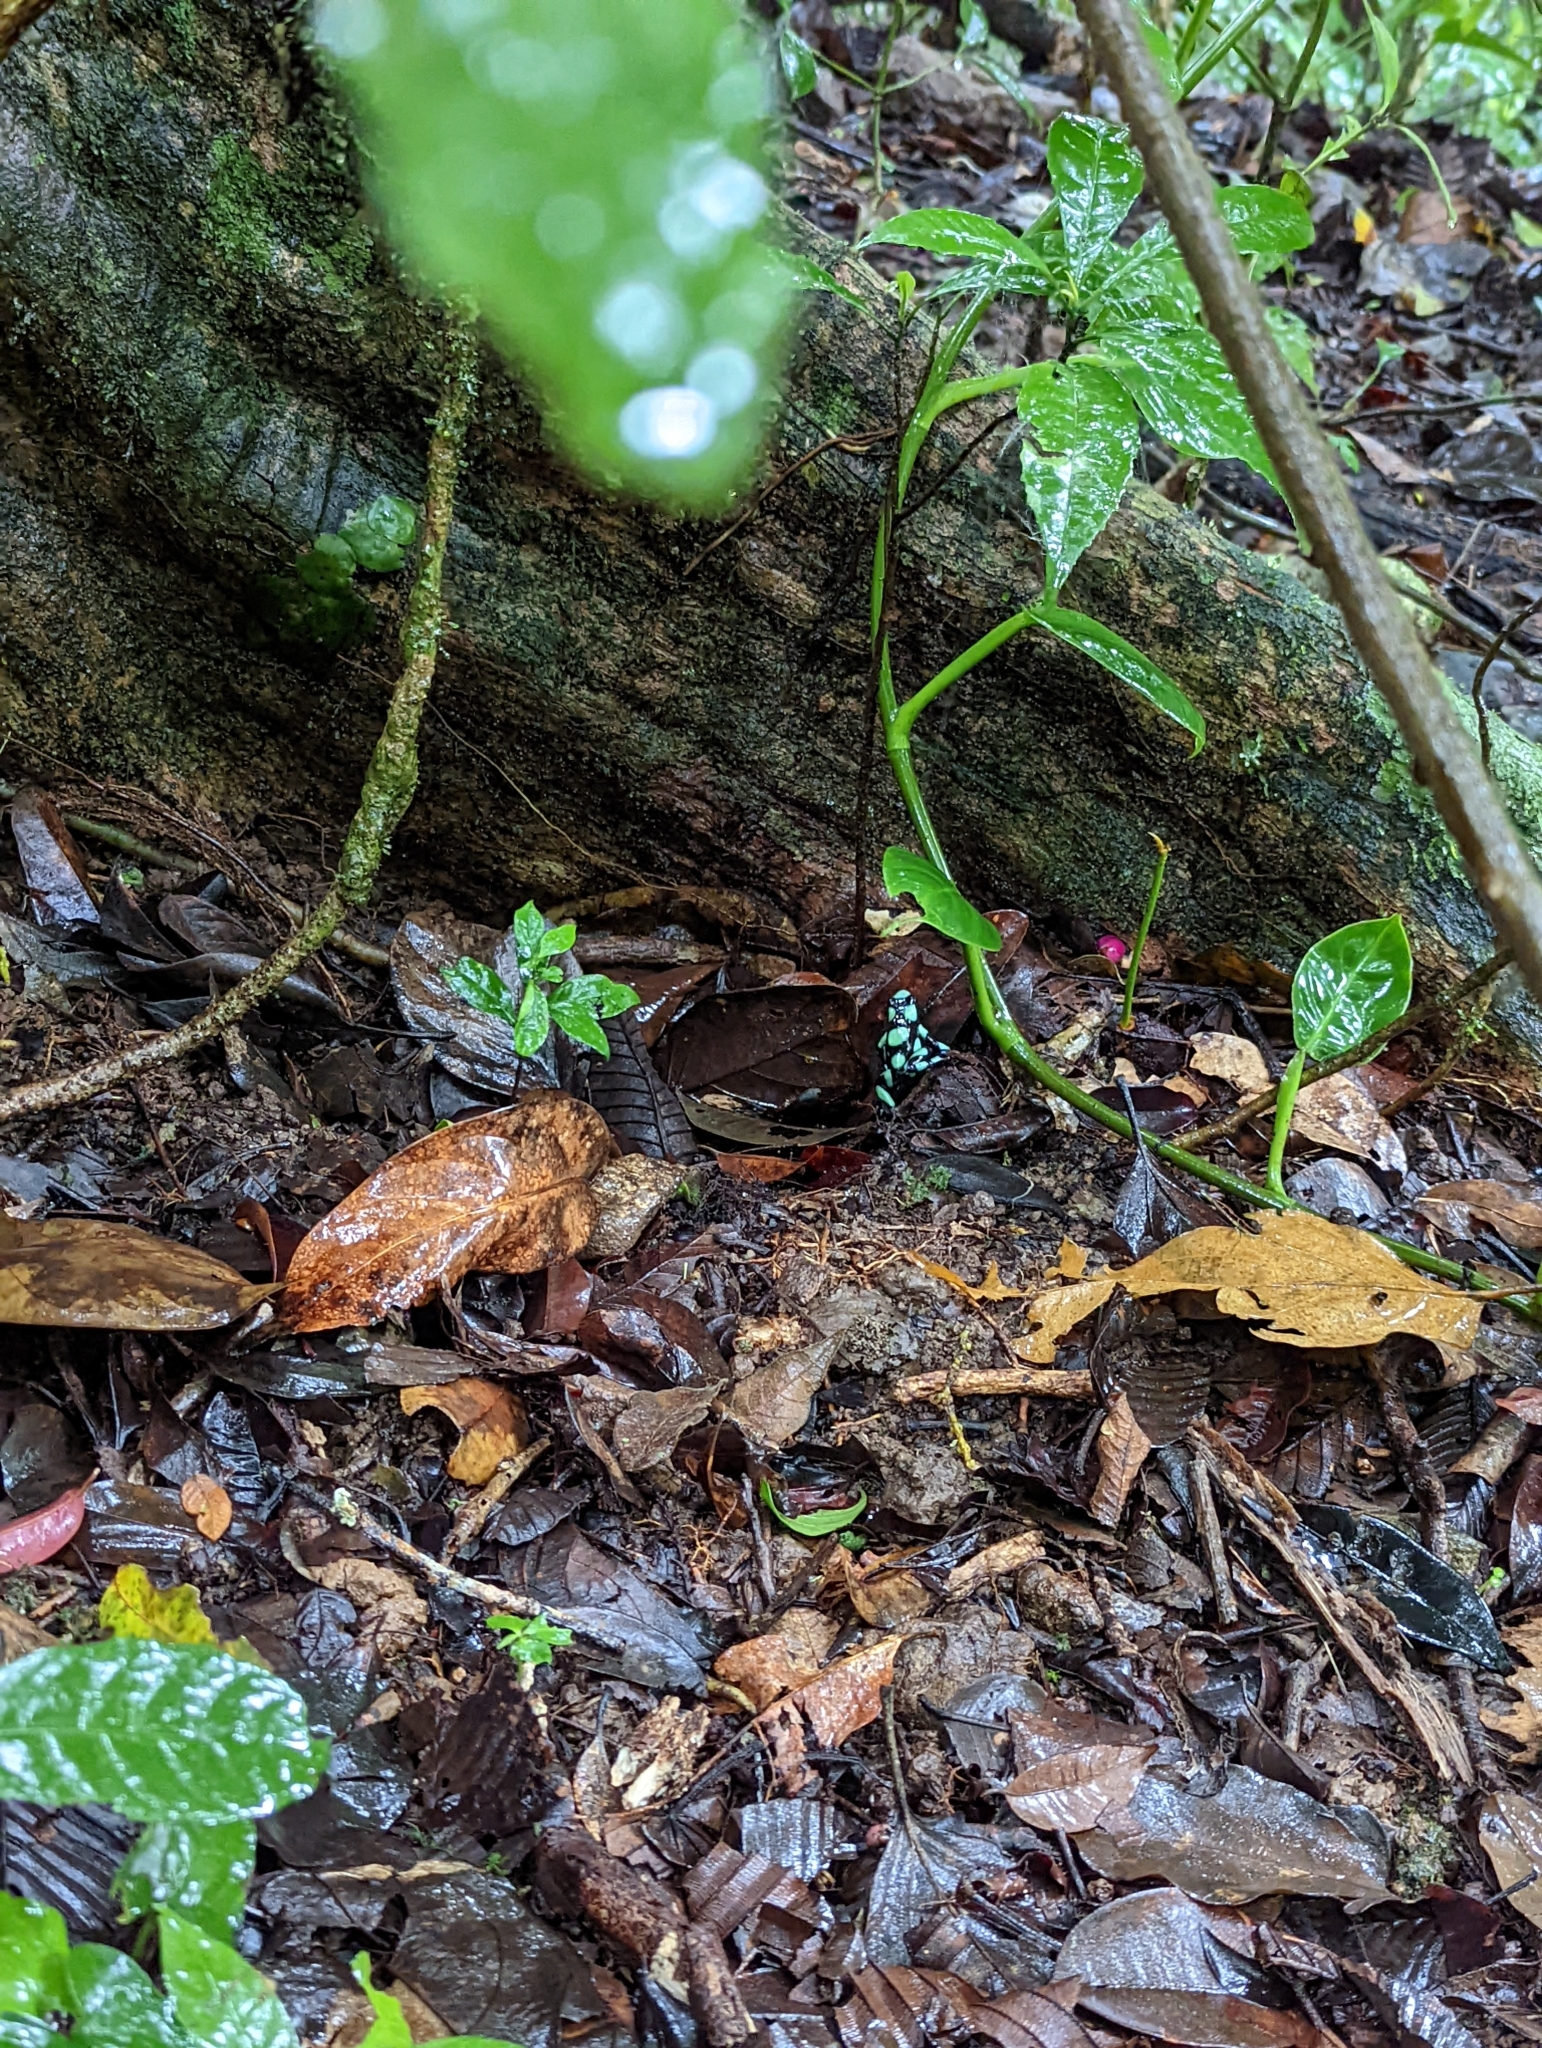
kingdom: Animalia
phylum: Chordata
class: Amphibia
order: Anura
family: Dendrobatidae
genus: Dendrobates
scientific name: Dendrobates auratus
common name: Green and black poison dart frog
